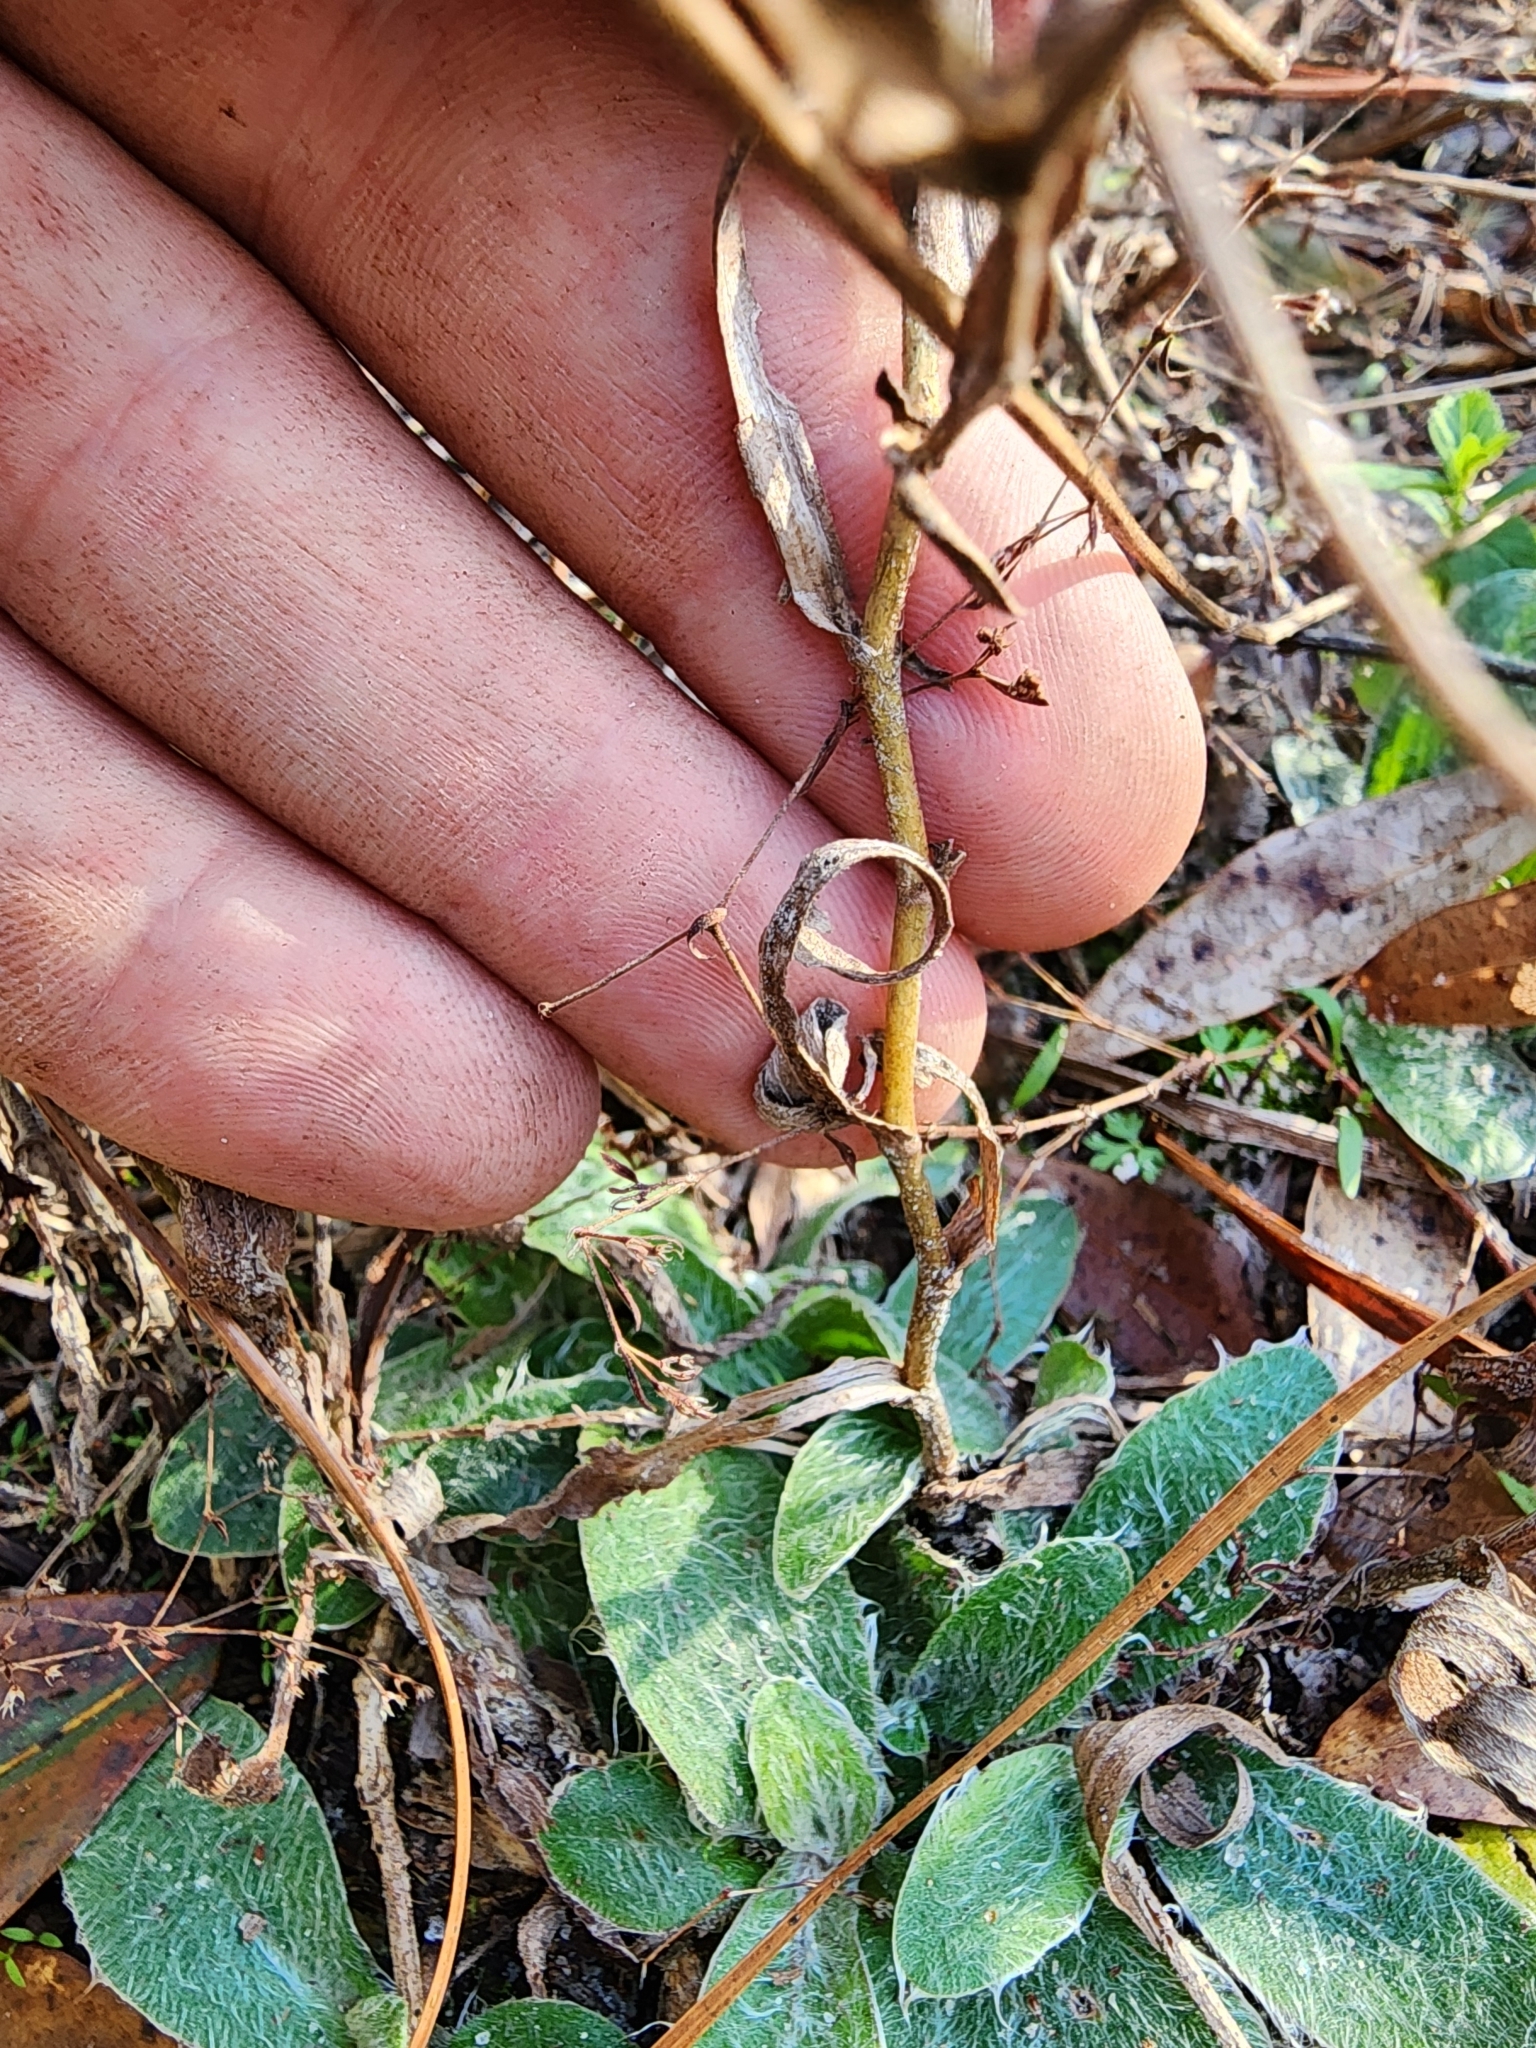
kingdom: Plantae
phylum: Tracheophyta
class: Magnoliopsida
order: Asterales
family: Asteraceae
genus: Pityopsis
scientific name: Pityopsis flexuosa
